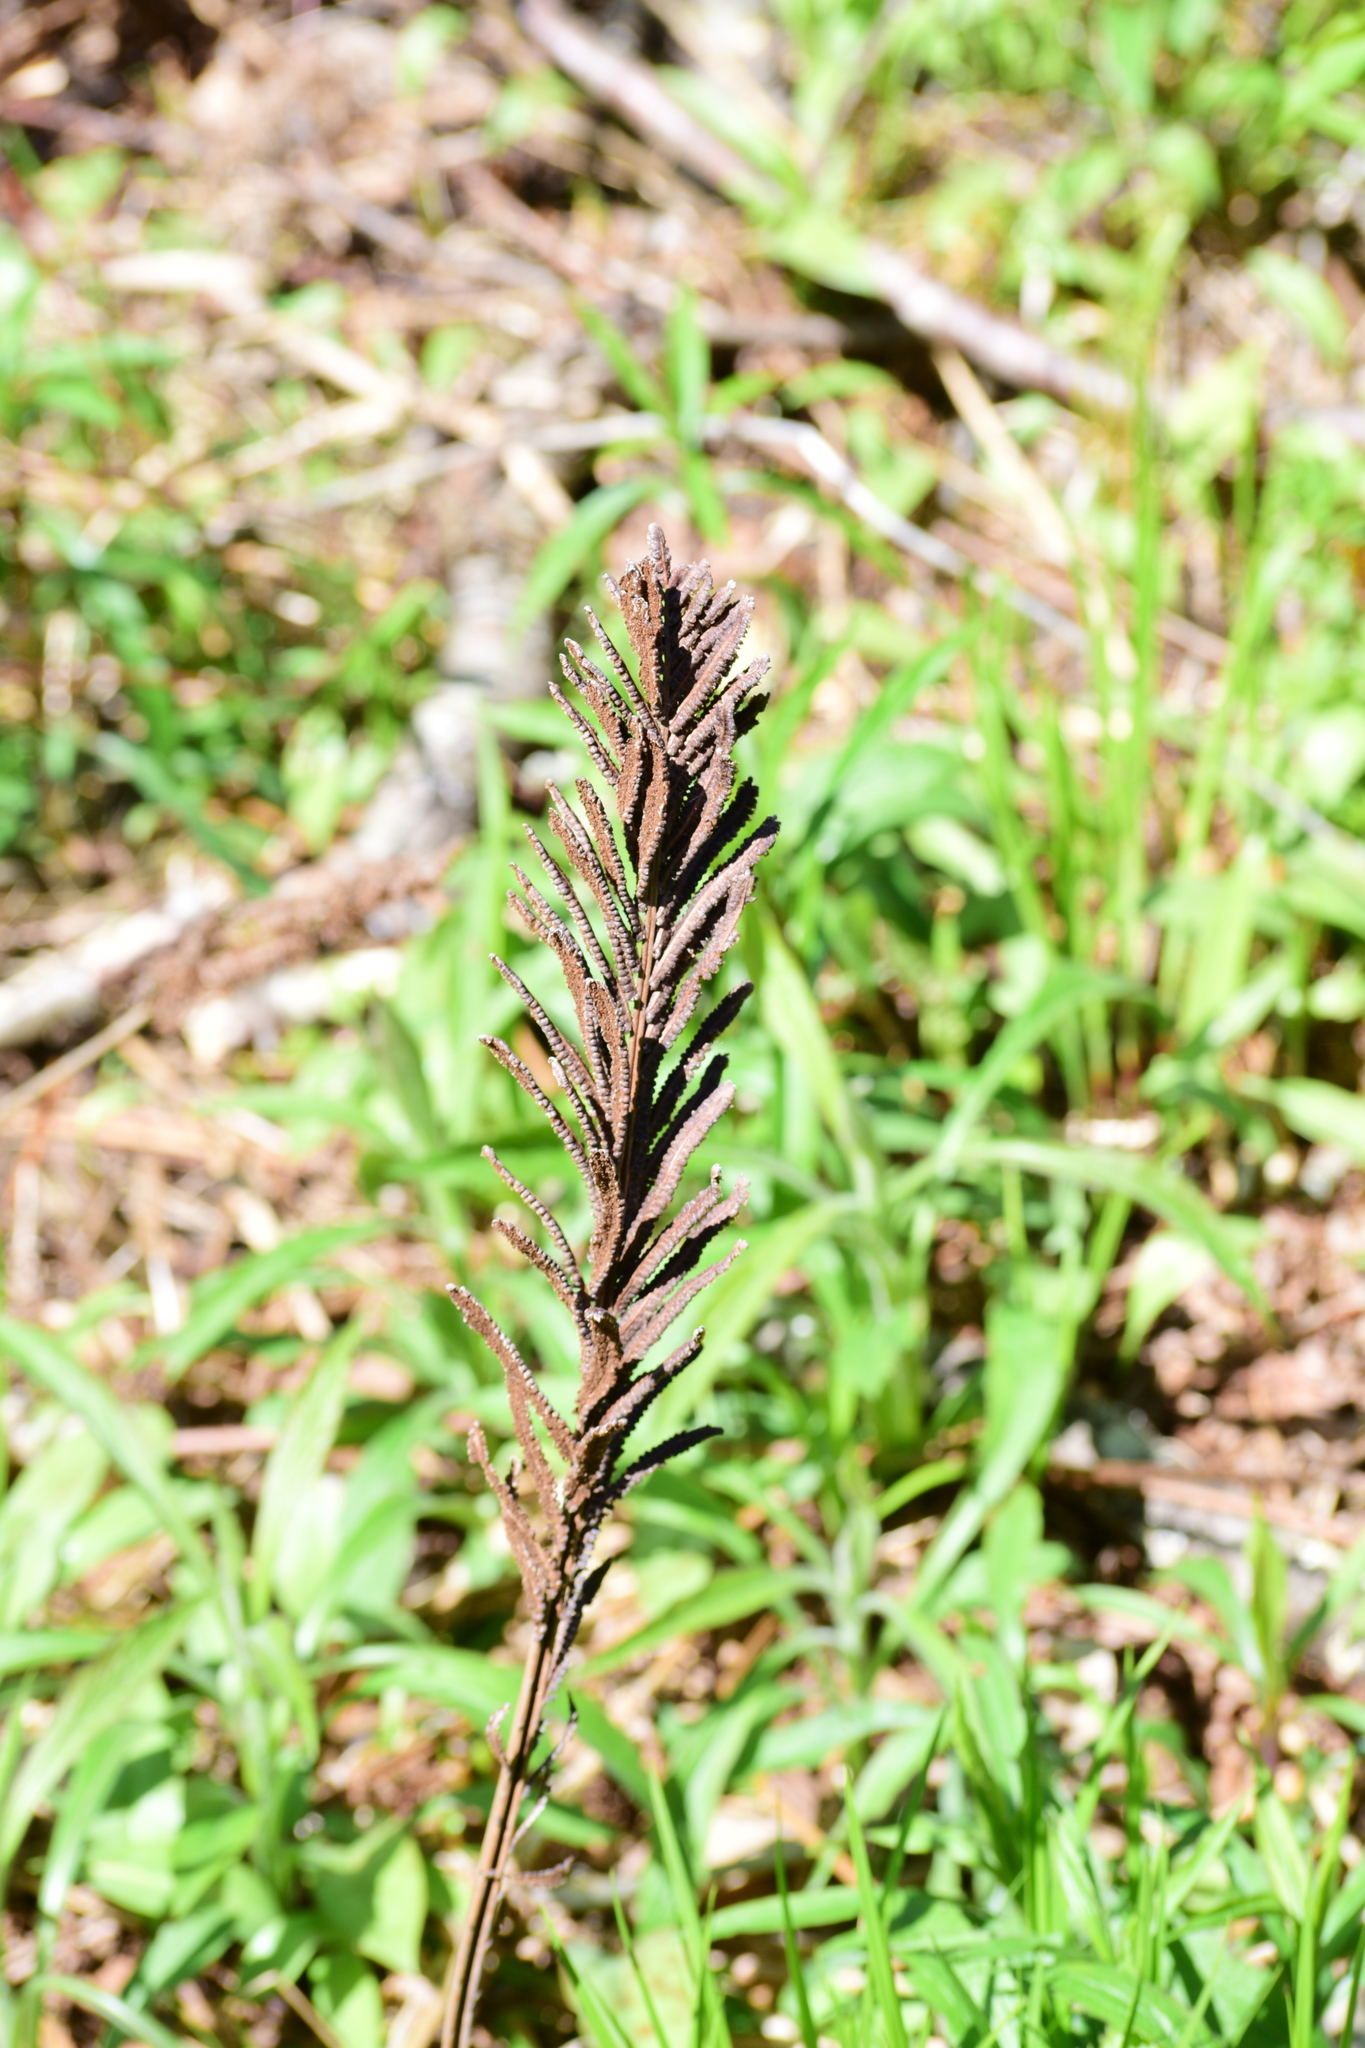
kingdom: Plantae
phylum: Tracheophyta
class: Polypodiopsida
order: Polypodiales
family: Onocleaceae
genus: Matteuccia
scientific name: Matteuccia struthiopteris
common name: Ostrich fern
